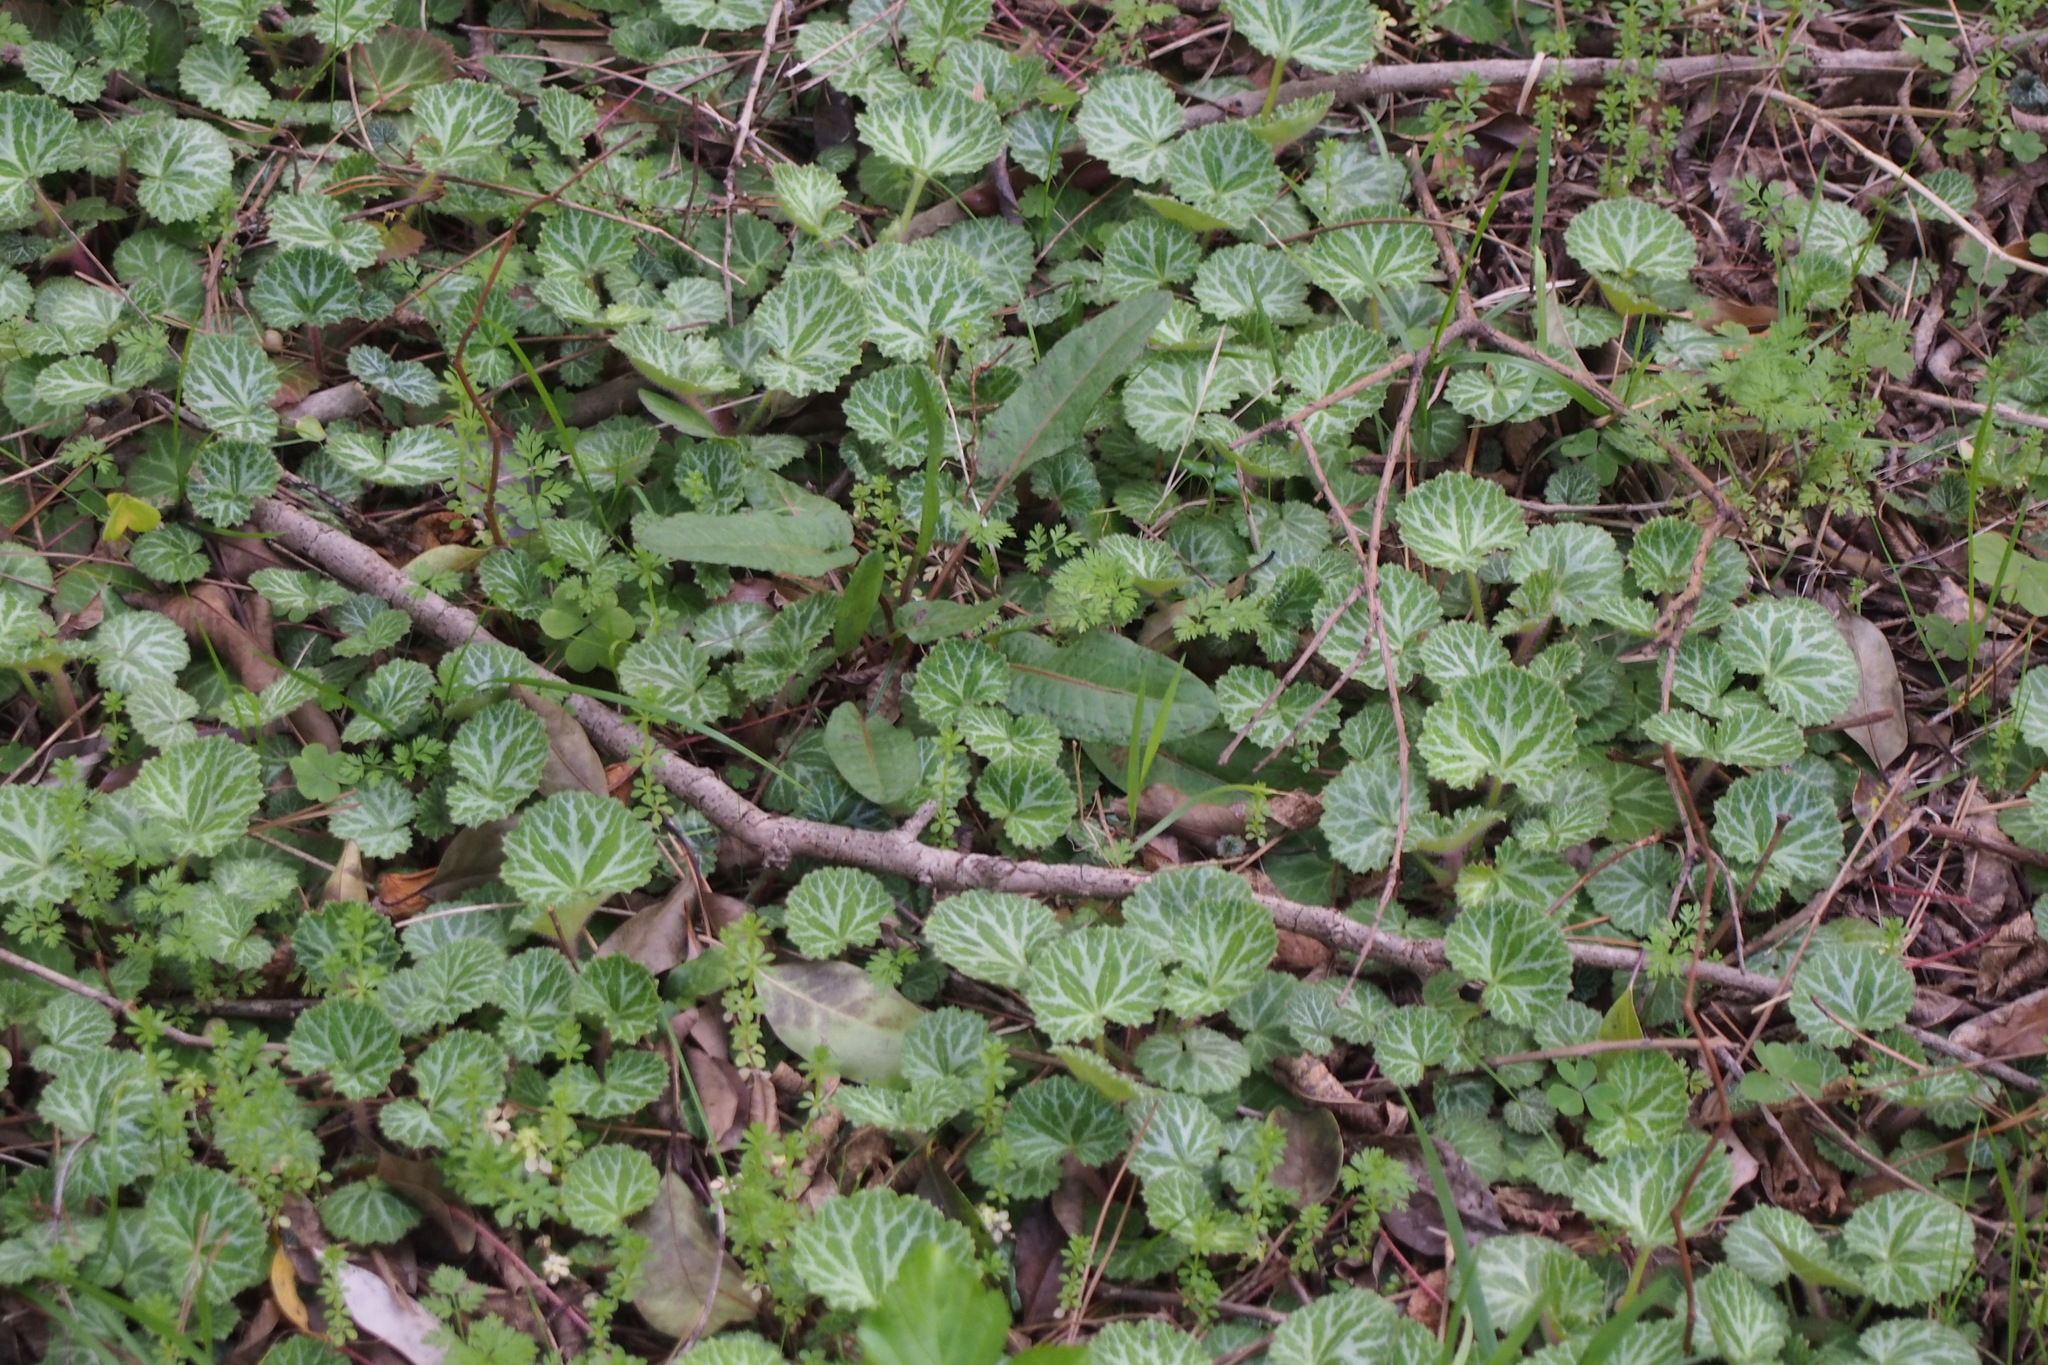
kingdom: Plantae
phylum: Tracheophyta
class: Magnoliopsida
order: Saxifragales
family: Saxifragaceae
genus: Saxifraga
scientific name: Saxifraga stolonifera
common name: Creeping saxifrage
